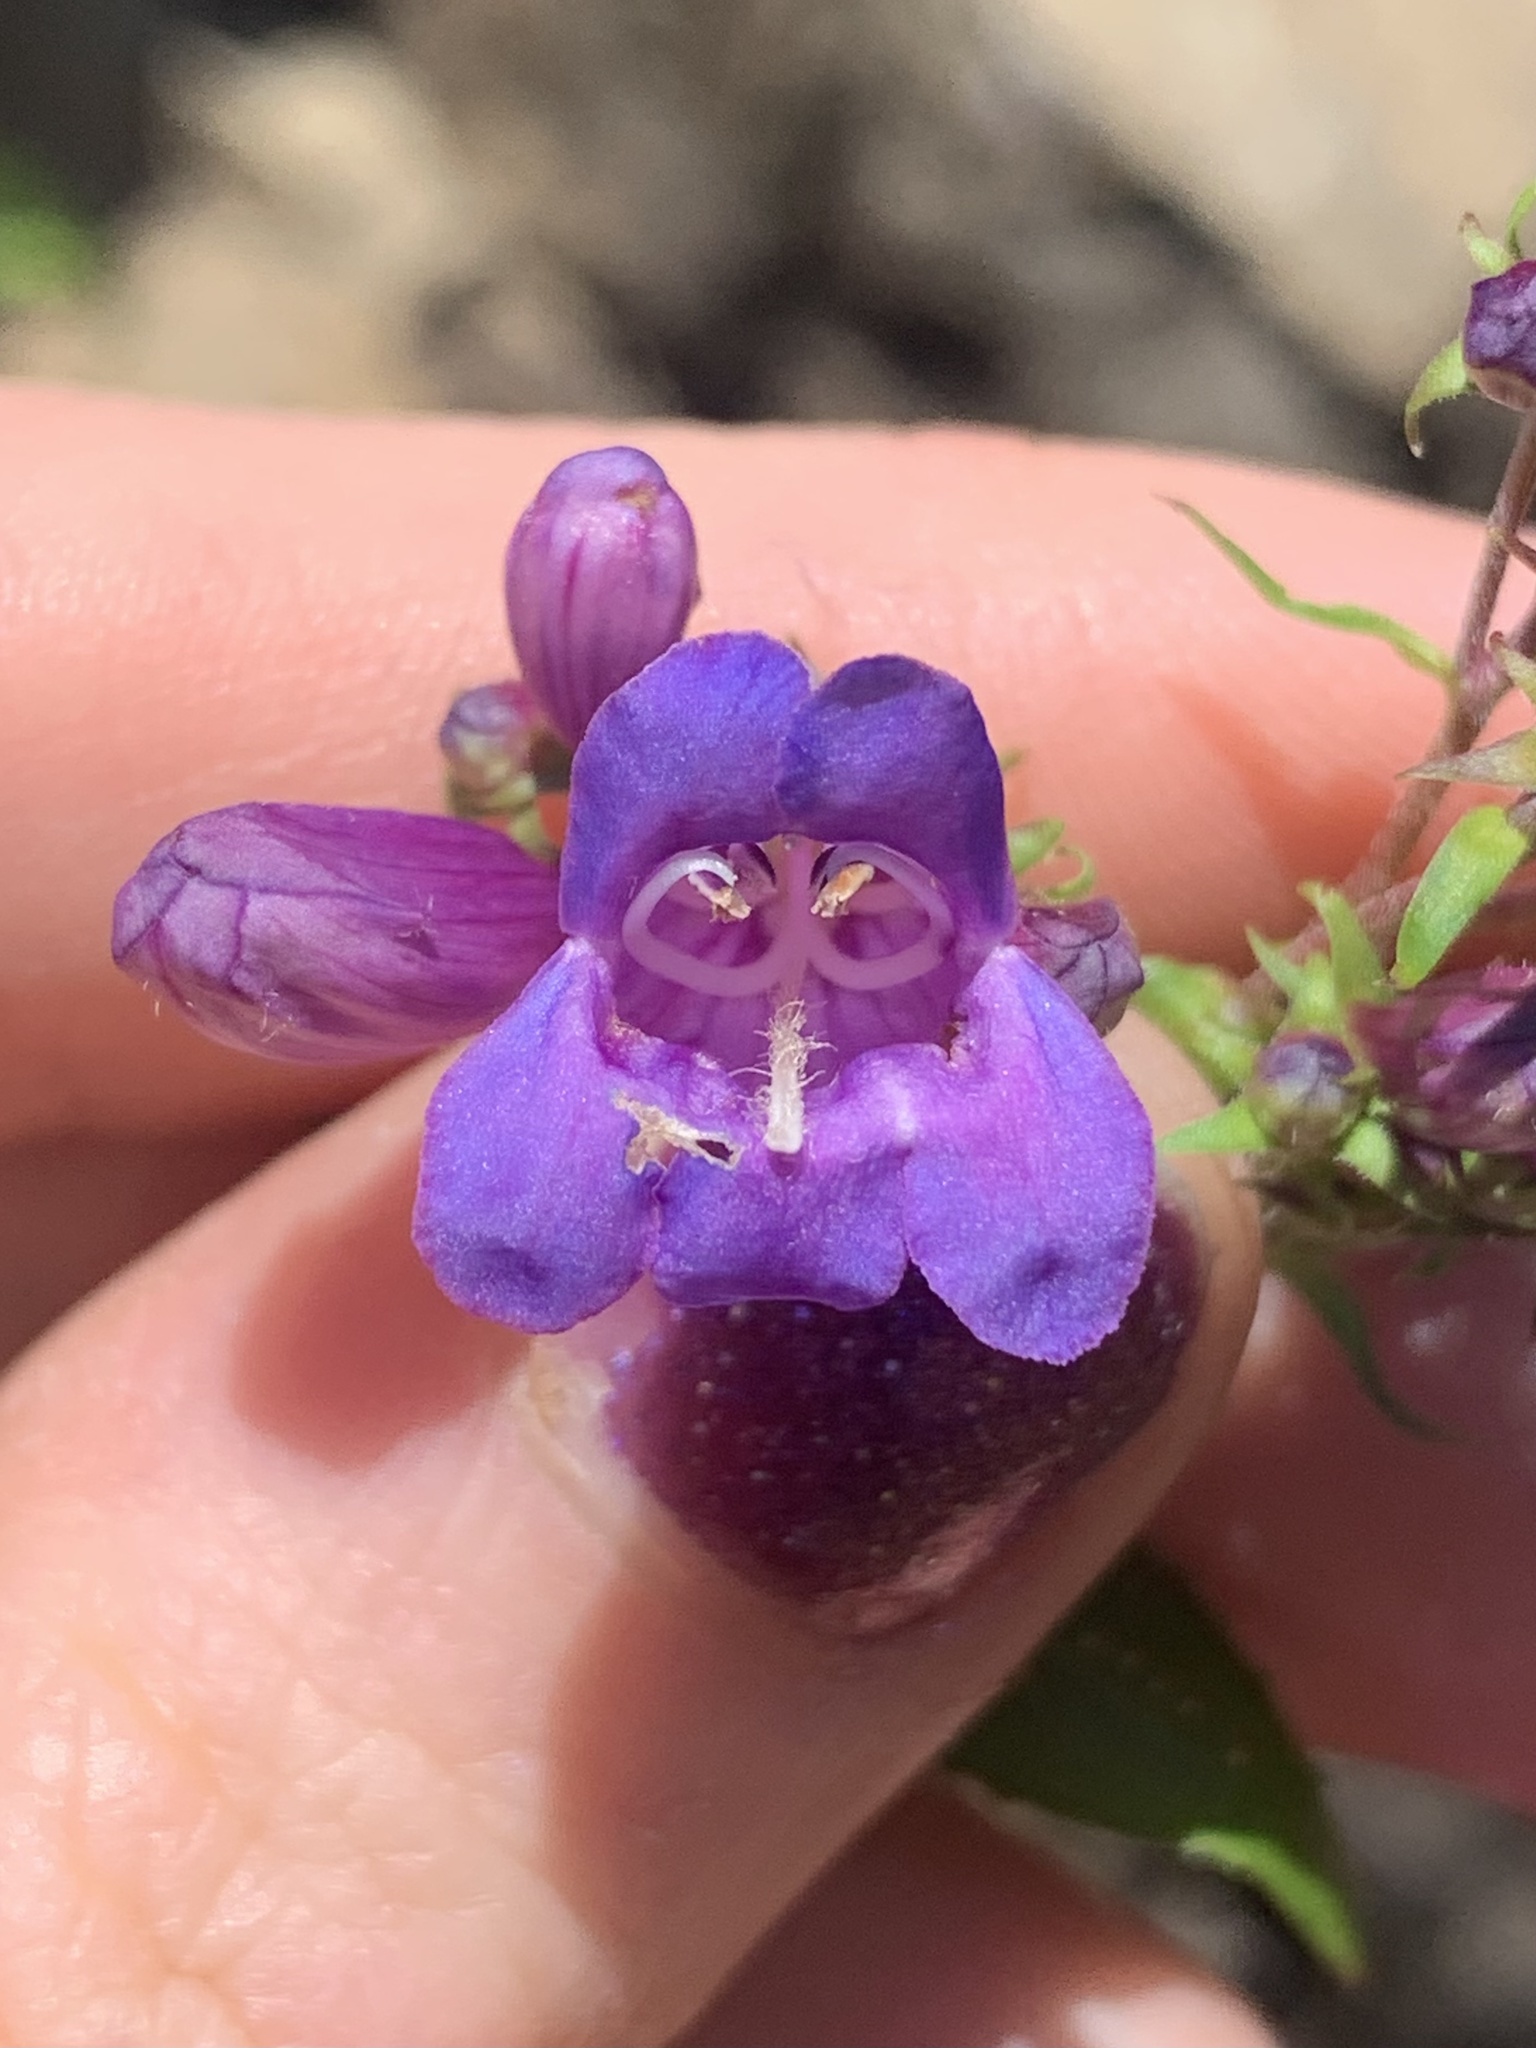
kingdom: Plantae
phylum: Tracheophyta
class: Magnoliopsida
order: Lamiales
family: Plantaginaceae
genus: Penstemon
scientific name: Penstemon serrulatus
